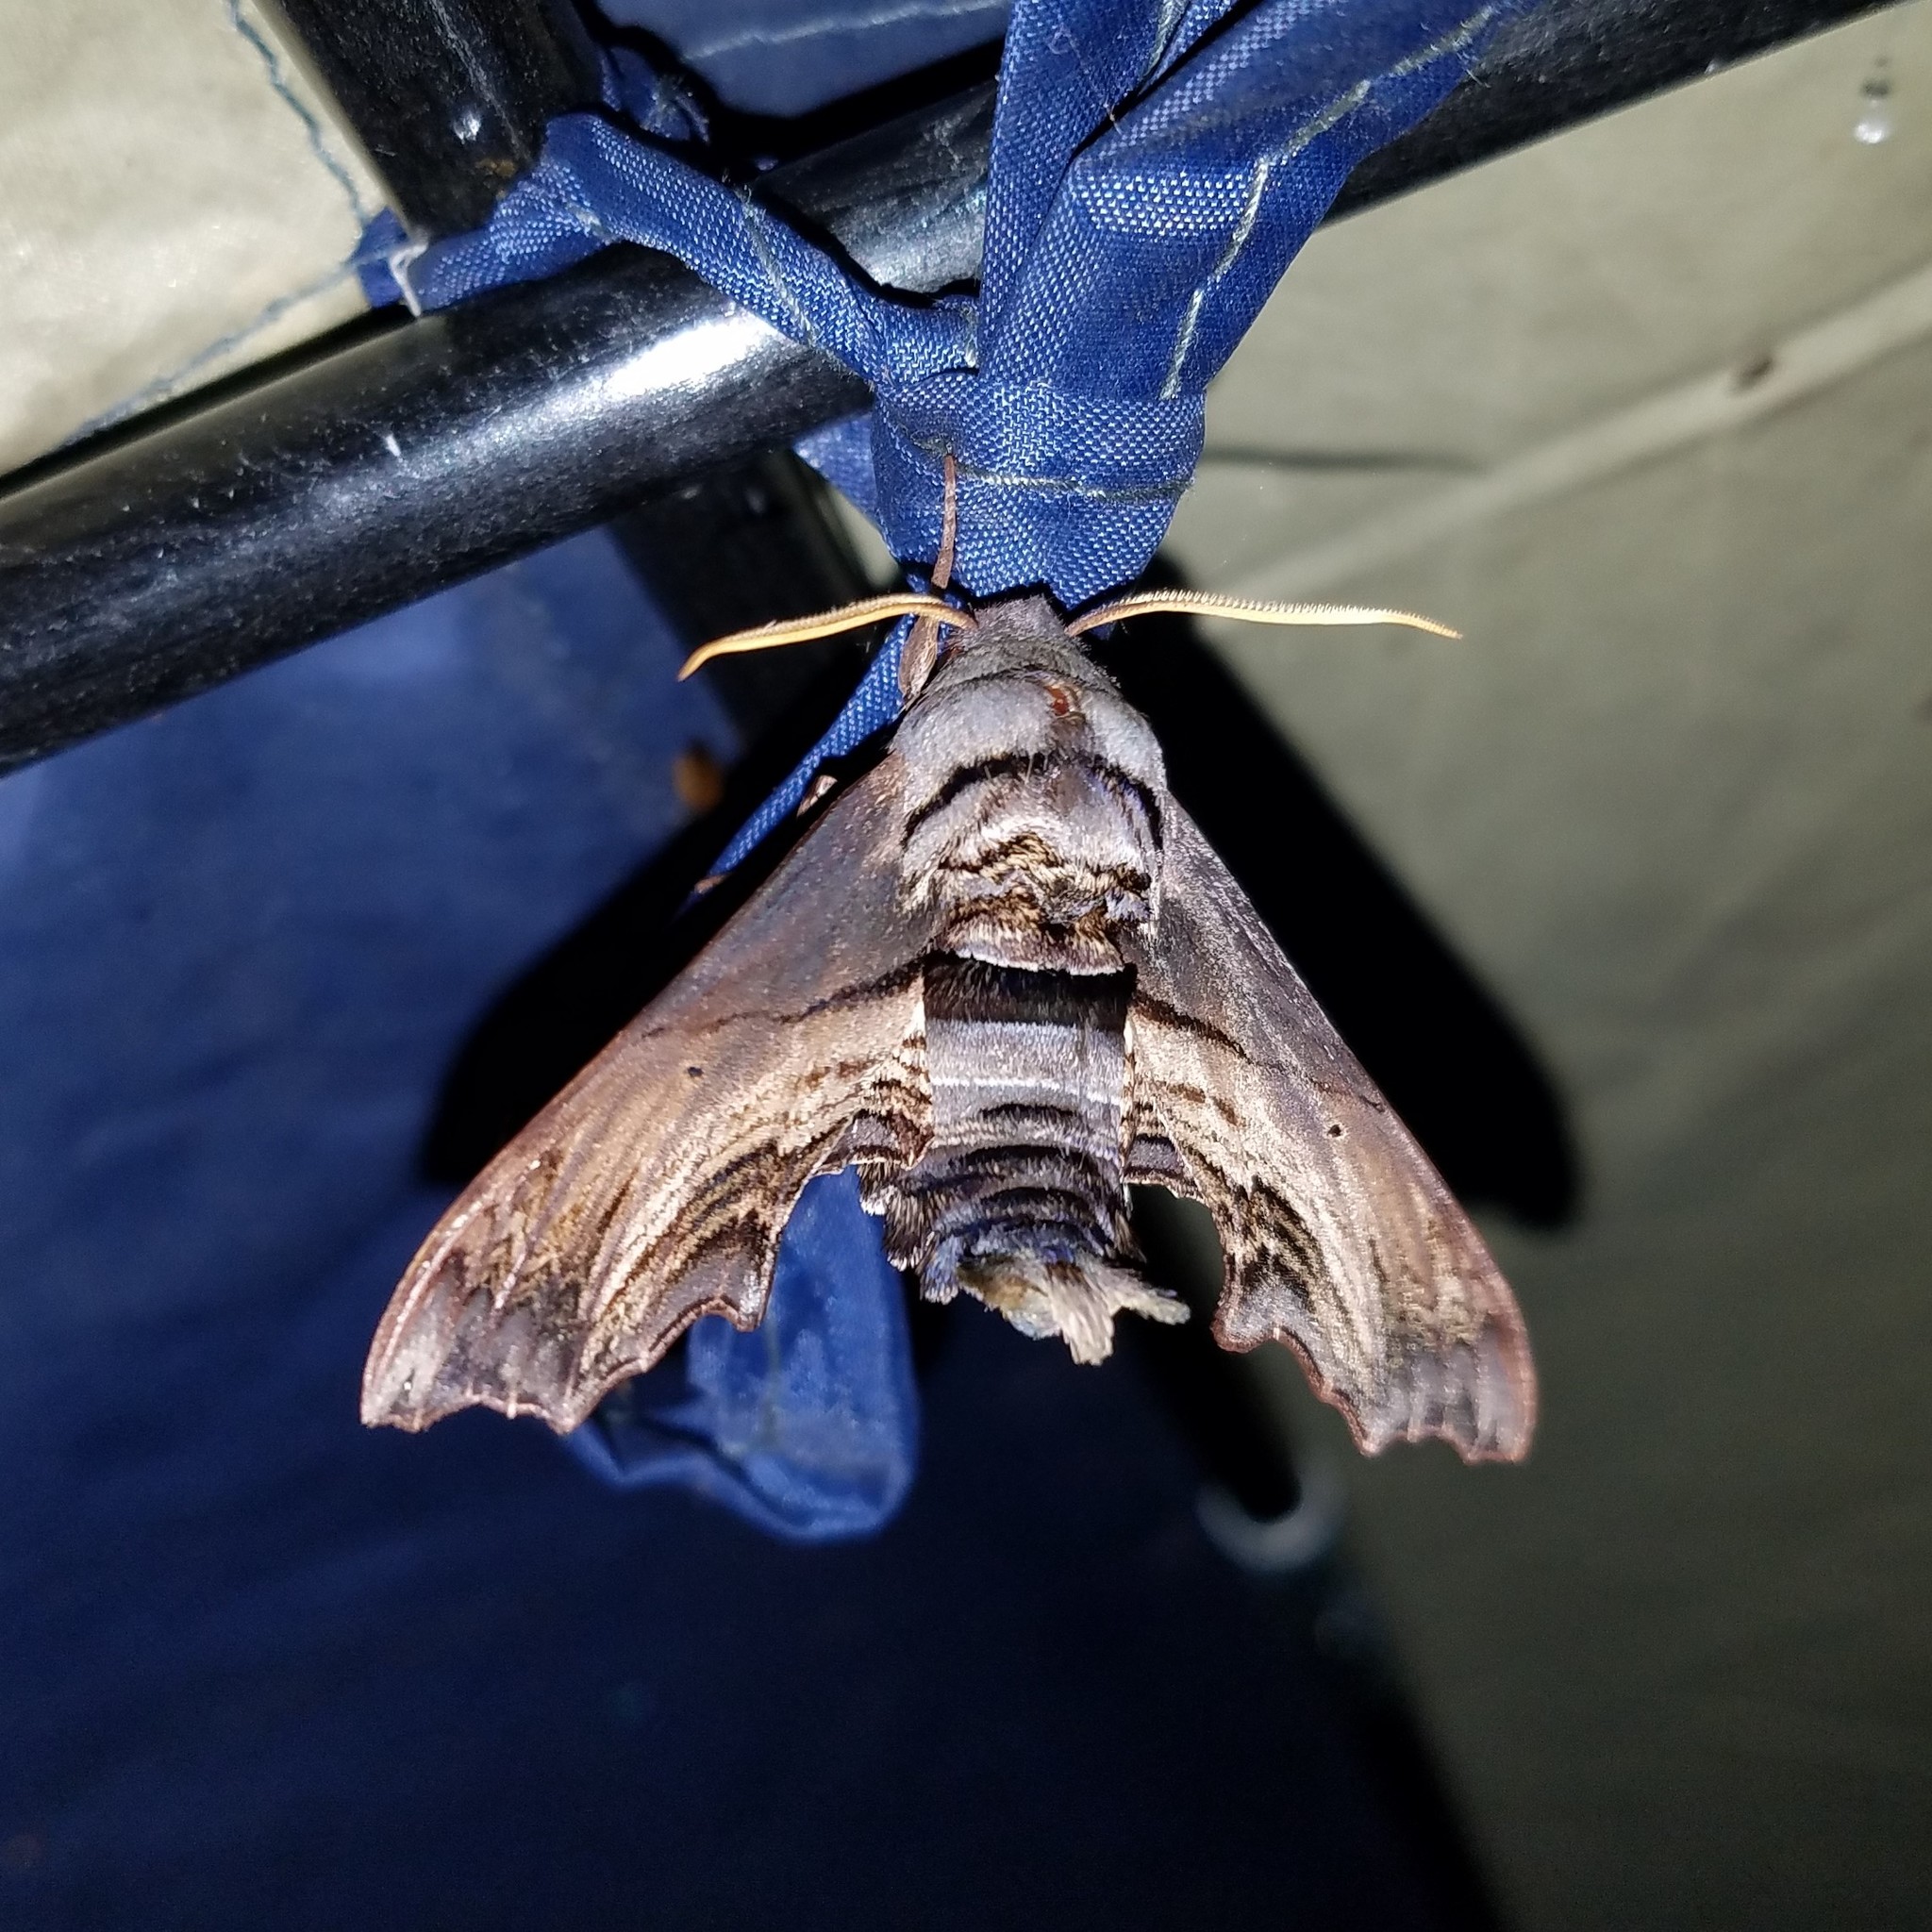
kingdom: Animalia
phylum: Arthropoda
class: Insecta
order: Lepidoptera
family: Sphingidae
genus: Sphecodina
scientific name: Sphecodina abbottii
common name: Abbott's sphinx
